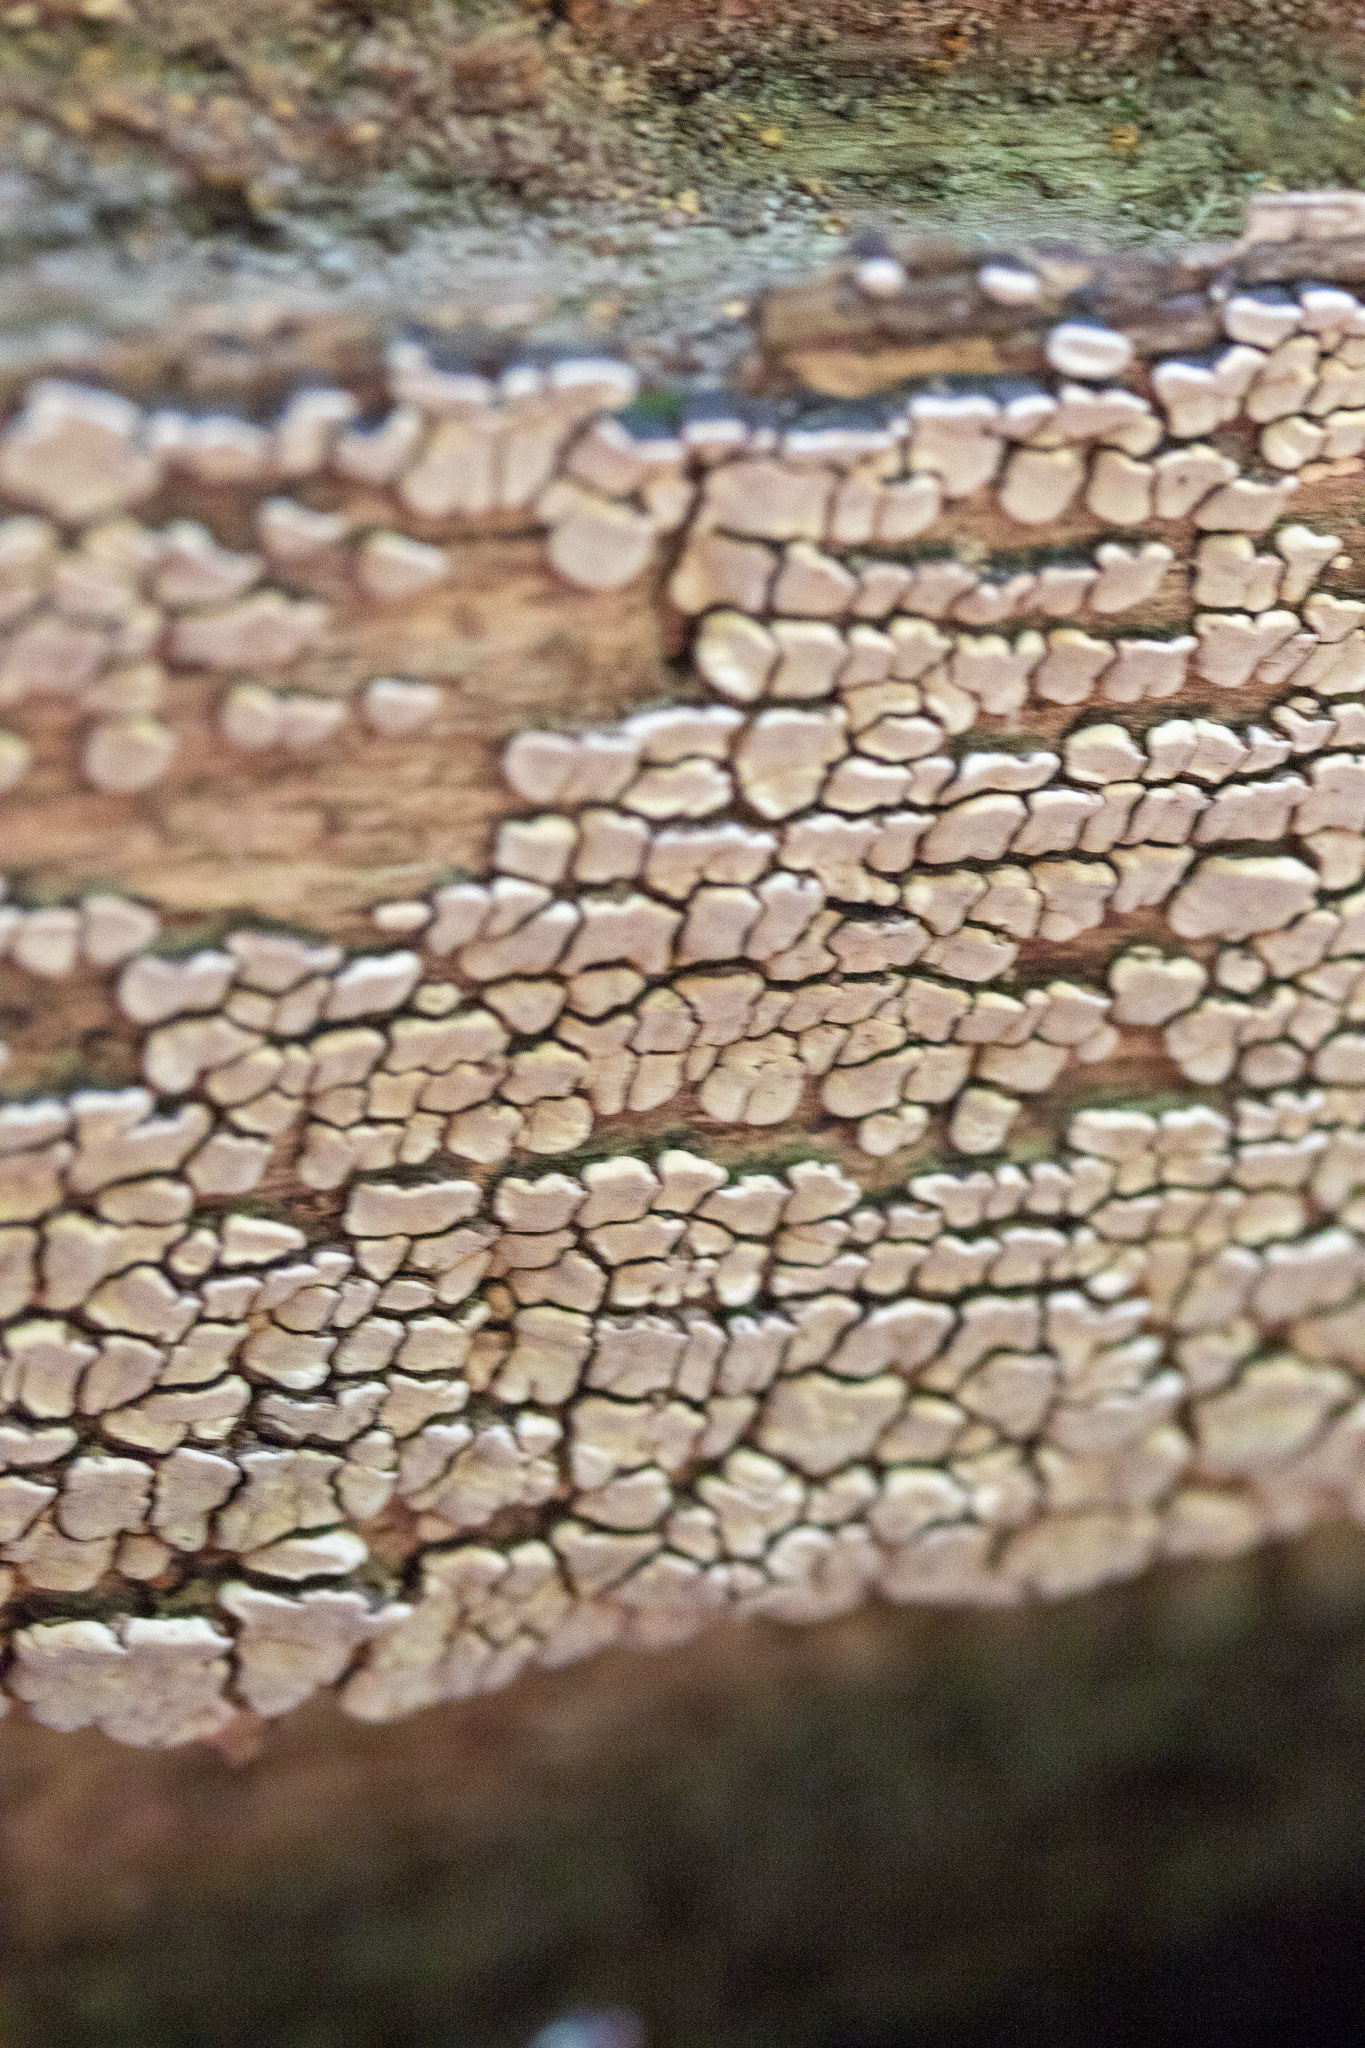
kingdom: Fungi
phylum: Basidiomycota
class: Agaricomycetes
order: Russulales
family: Stereaceae
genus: Xylobolus
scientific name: Xylobolus frustulatus
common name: Ceramic parchment
